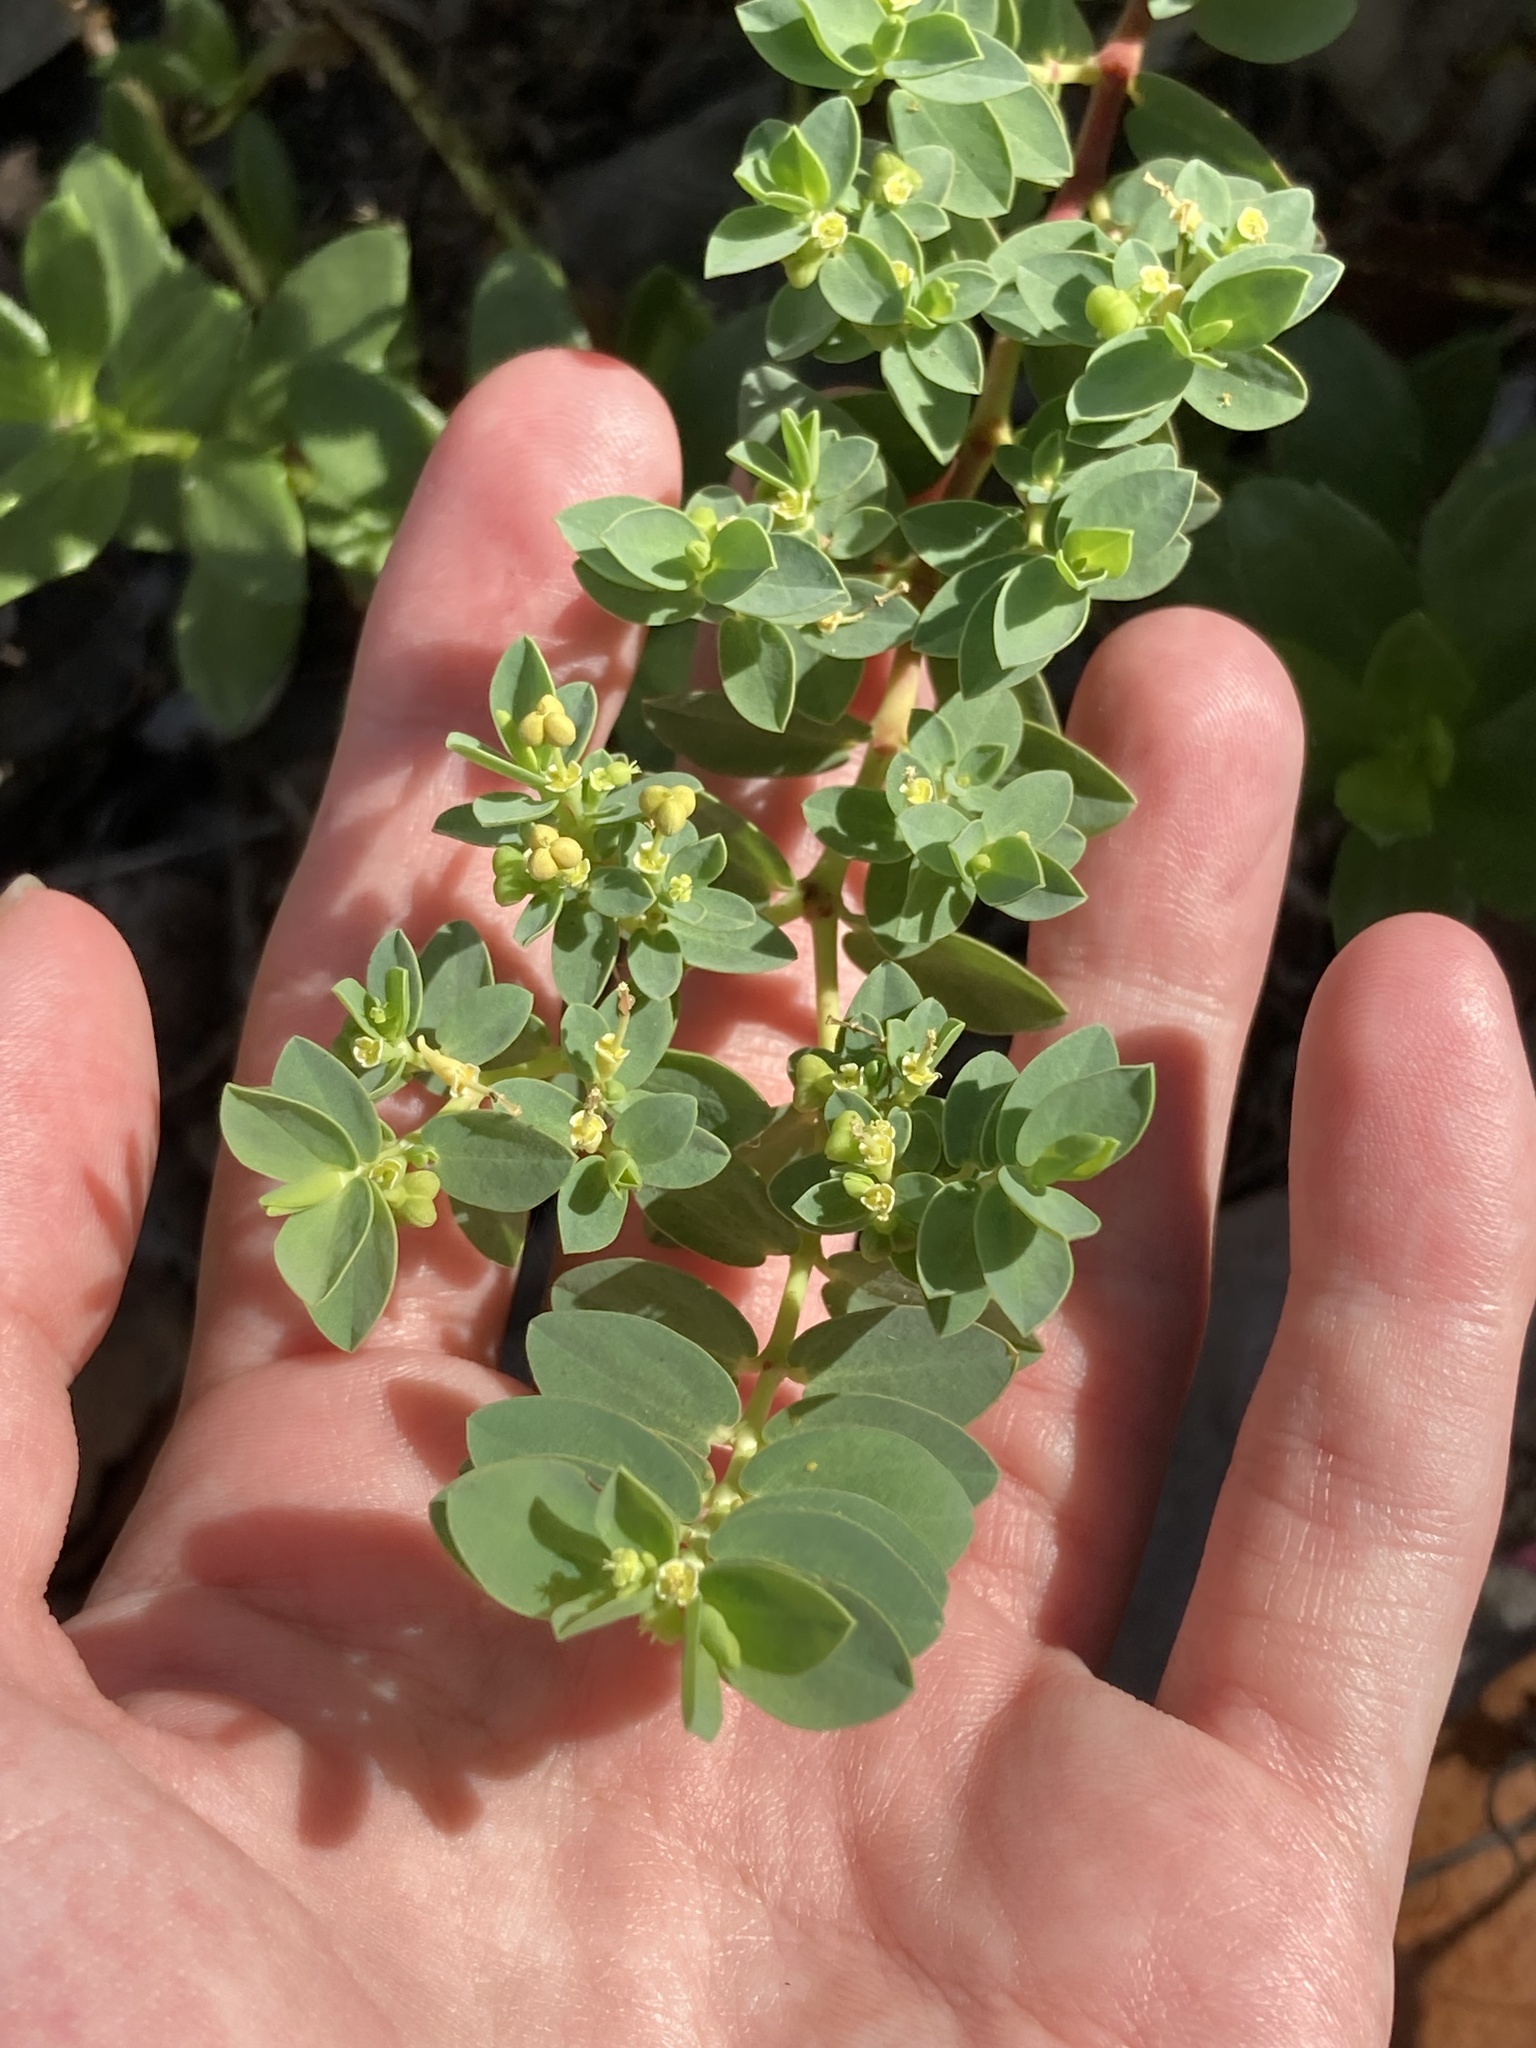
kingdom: Plantae
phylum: Tracheophyta
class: Magnoliopsida
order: Malpighiales
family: Euphorbiaceae
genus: Euphorbia
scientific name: Euphorbia mesembryanthemifolia
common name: Coastal beach sandmat
